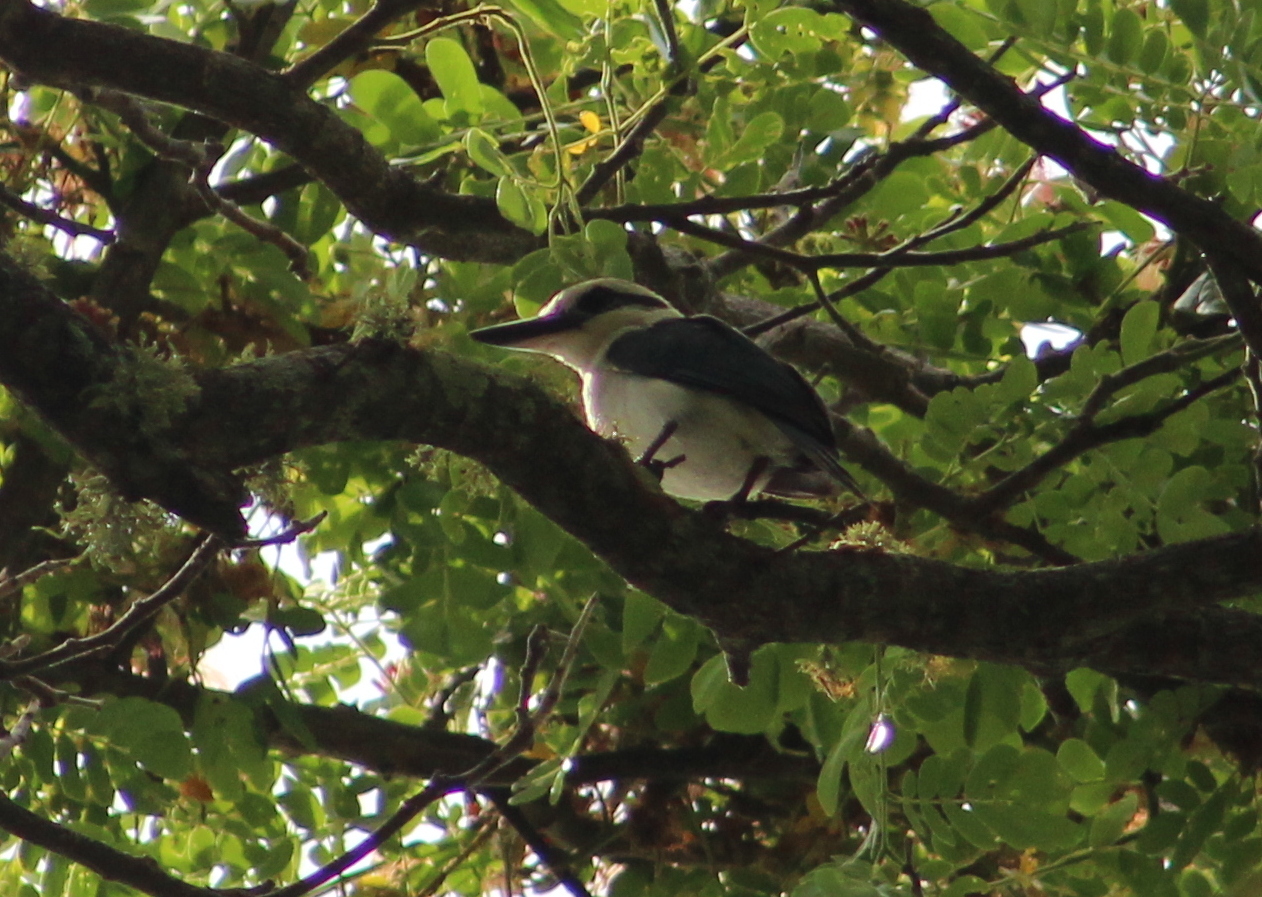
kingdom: Animalia
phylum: Chordata
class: Aves
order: Coraciiformes
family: Alcedinidae
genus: Todiramphus
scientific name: Todiramphus tutus
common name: Chattering kingfisher
